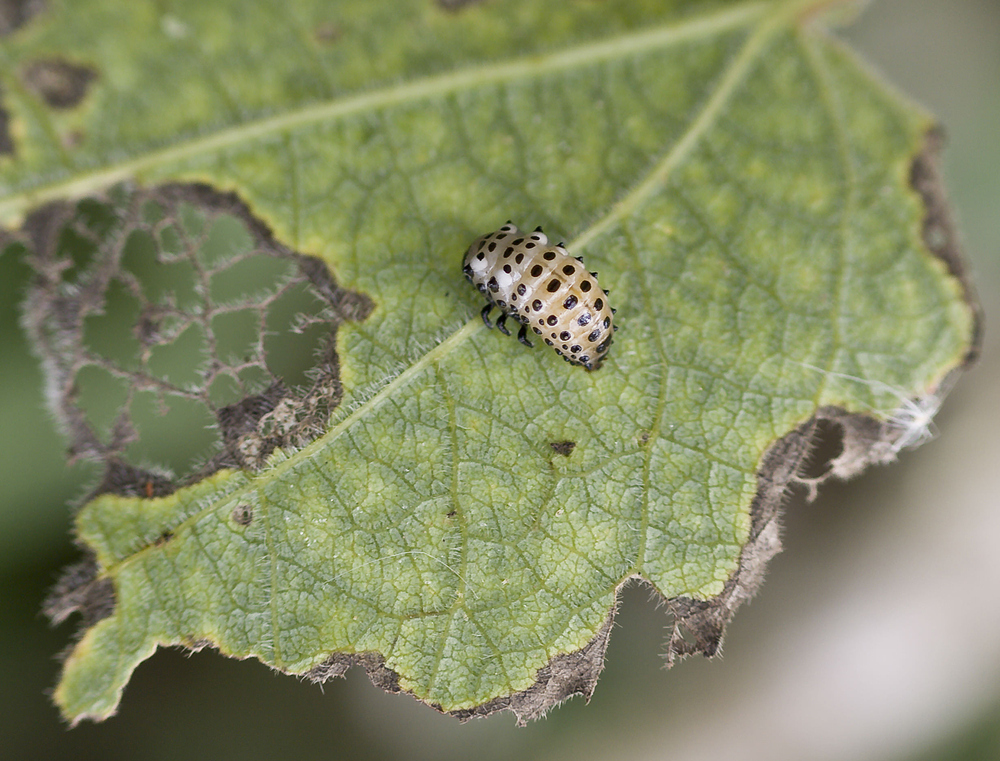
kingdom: Animalia
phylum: Arthropoda
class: Insecta
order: Coleoptera
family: Chrysomelidae
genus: Chrysomela
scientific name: Chrysomela populi
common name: Red poplar leaf beetle
